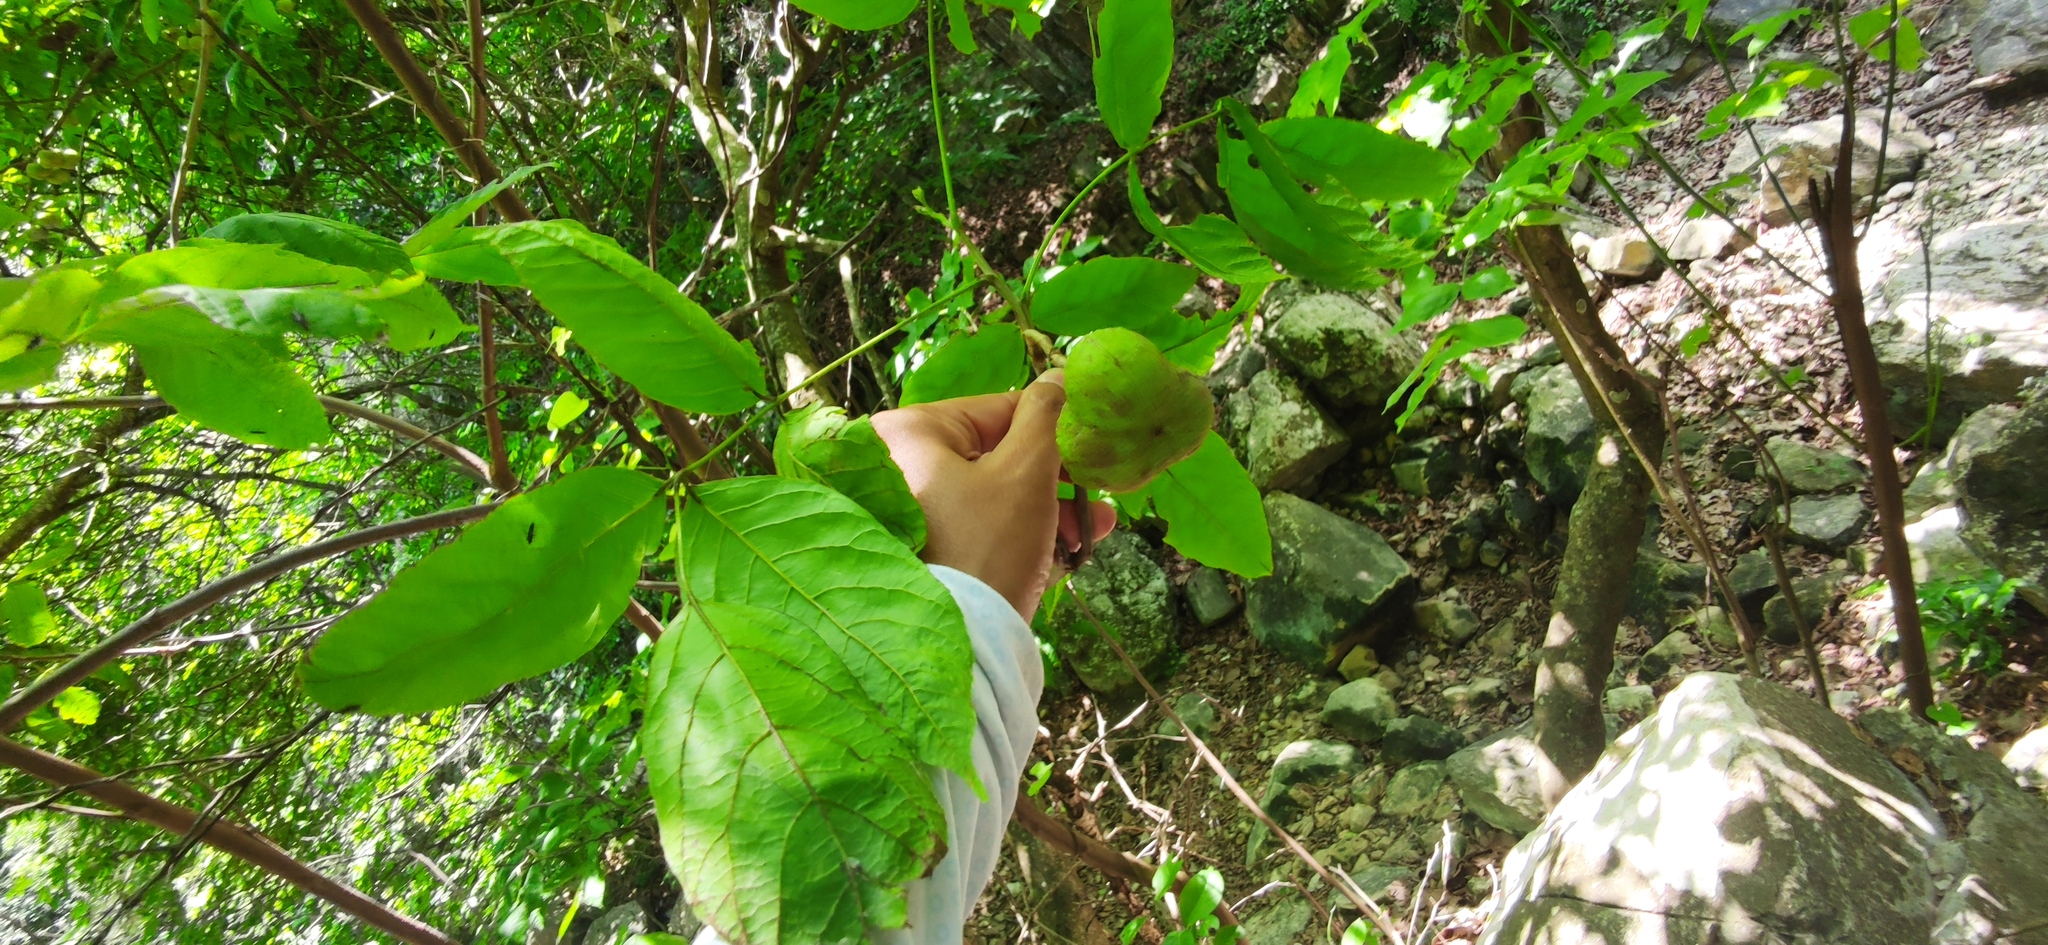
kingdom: Plantae
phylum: Tracheophyta
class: Magnoliopsida
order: Sapindales
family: Sapindaceae
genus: Ungnadia
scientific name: Ungnadia speciosa
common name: Texas-buckeye
